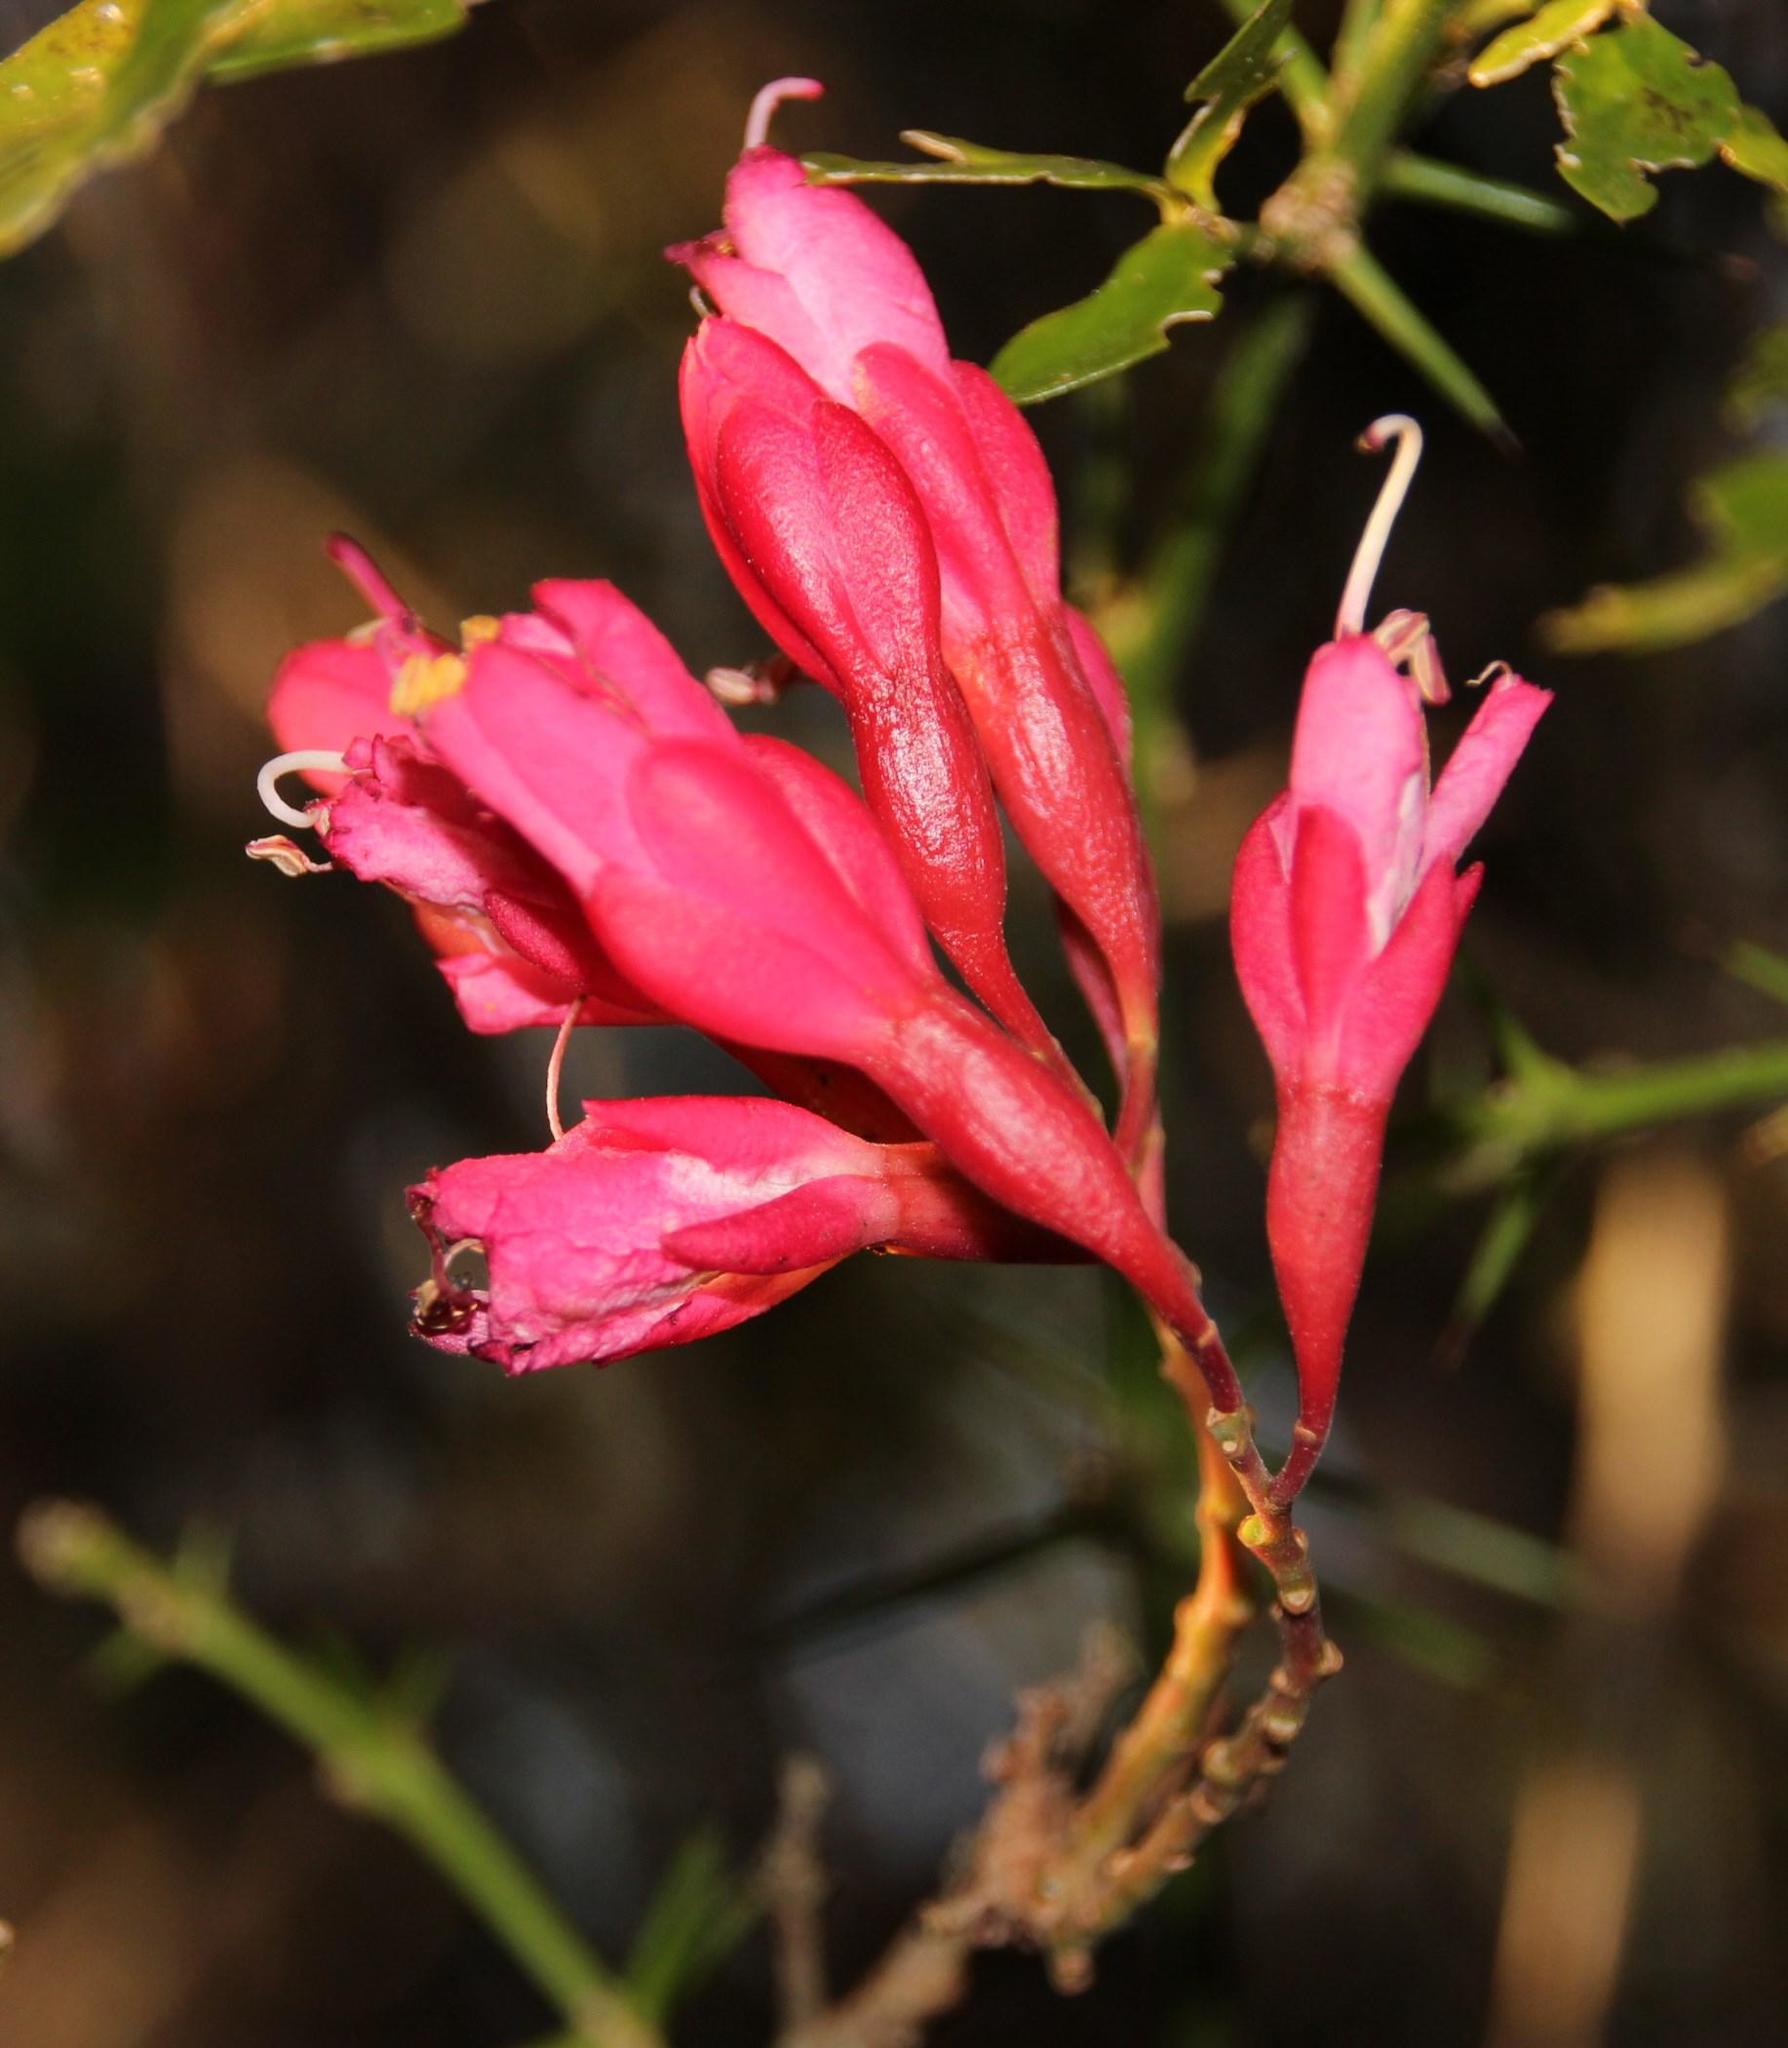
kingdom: Plantae
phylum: Tracheophyta
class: Magnoliopsida
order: Fabales
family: Fabaceae
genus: Schotia
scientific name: Schotia afra
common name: Hottentot's bean
